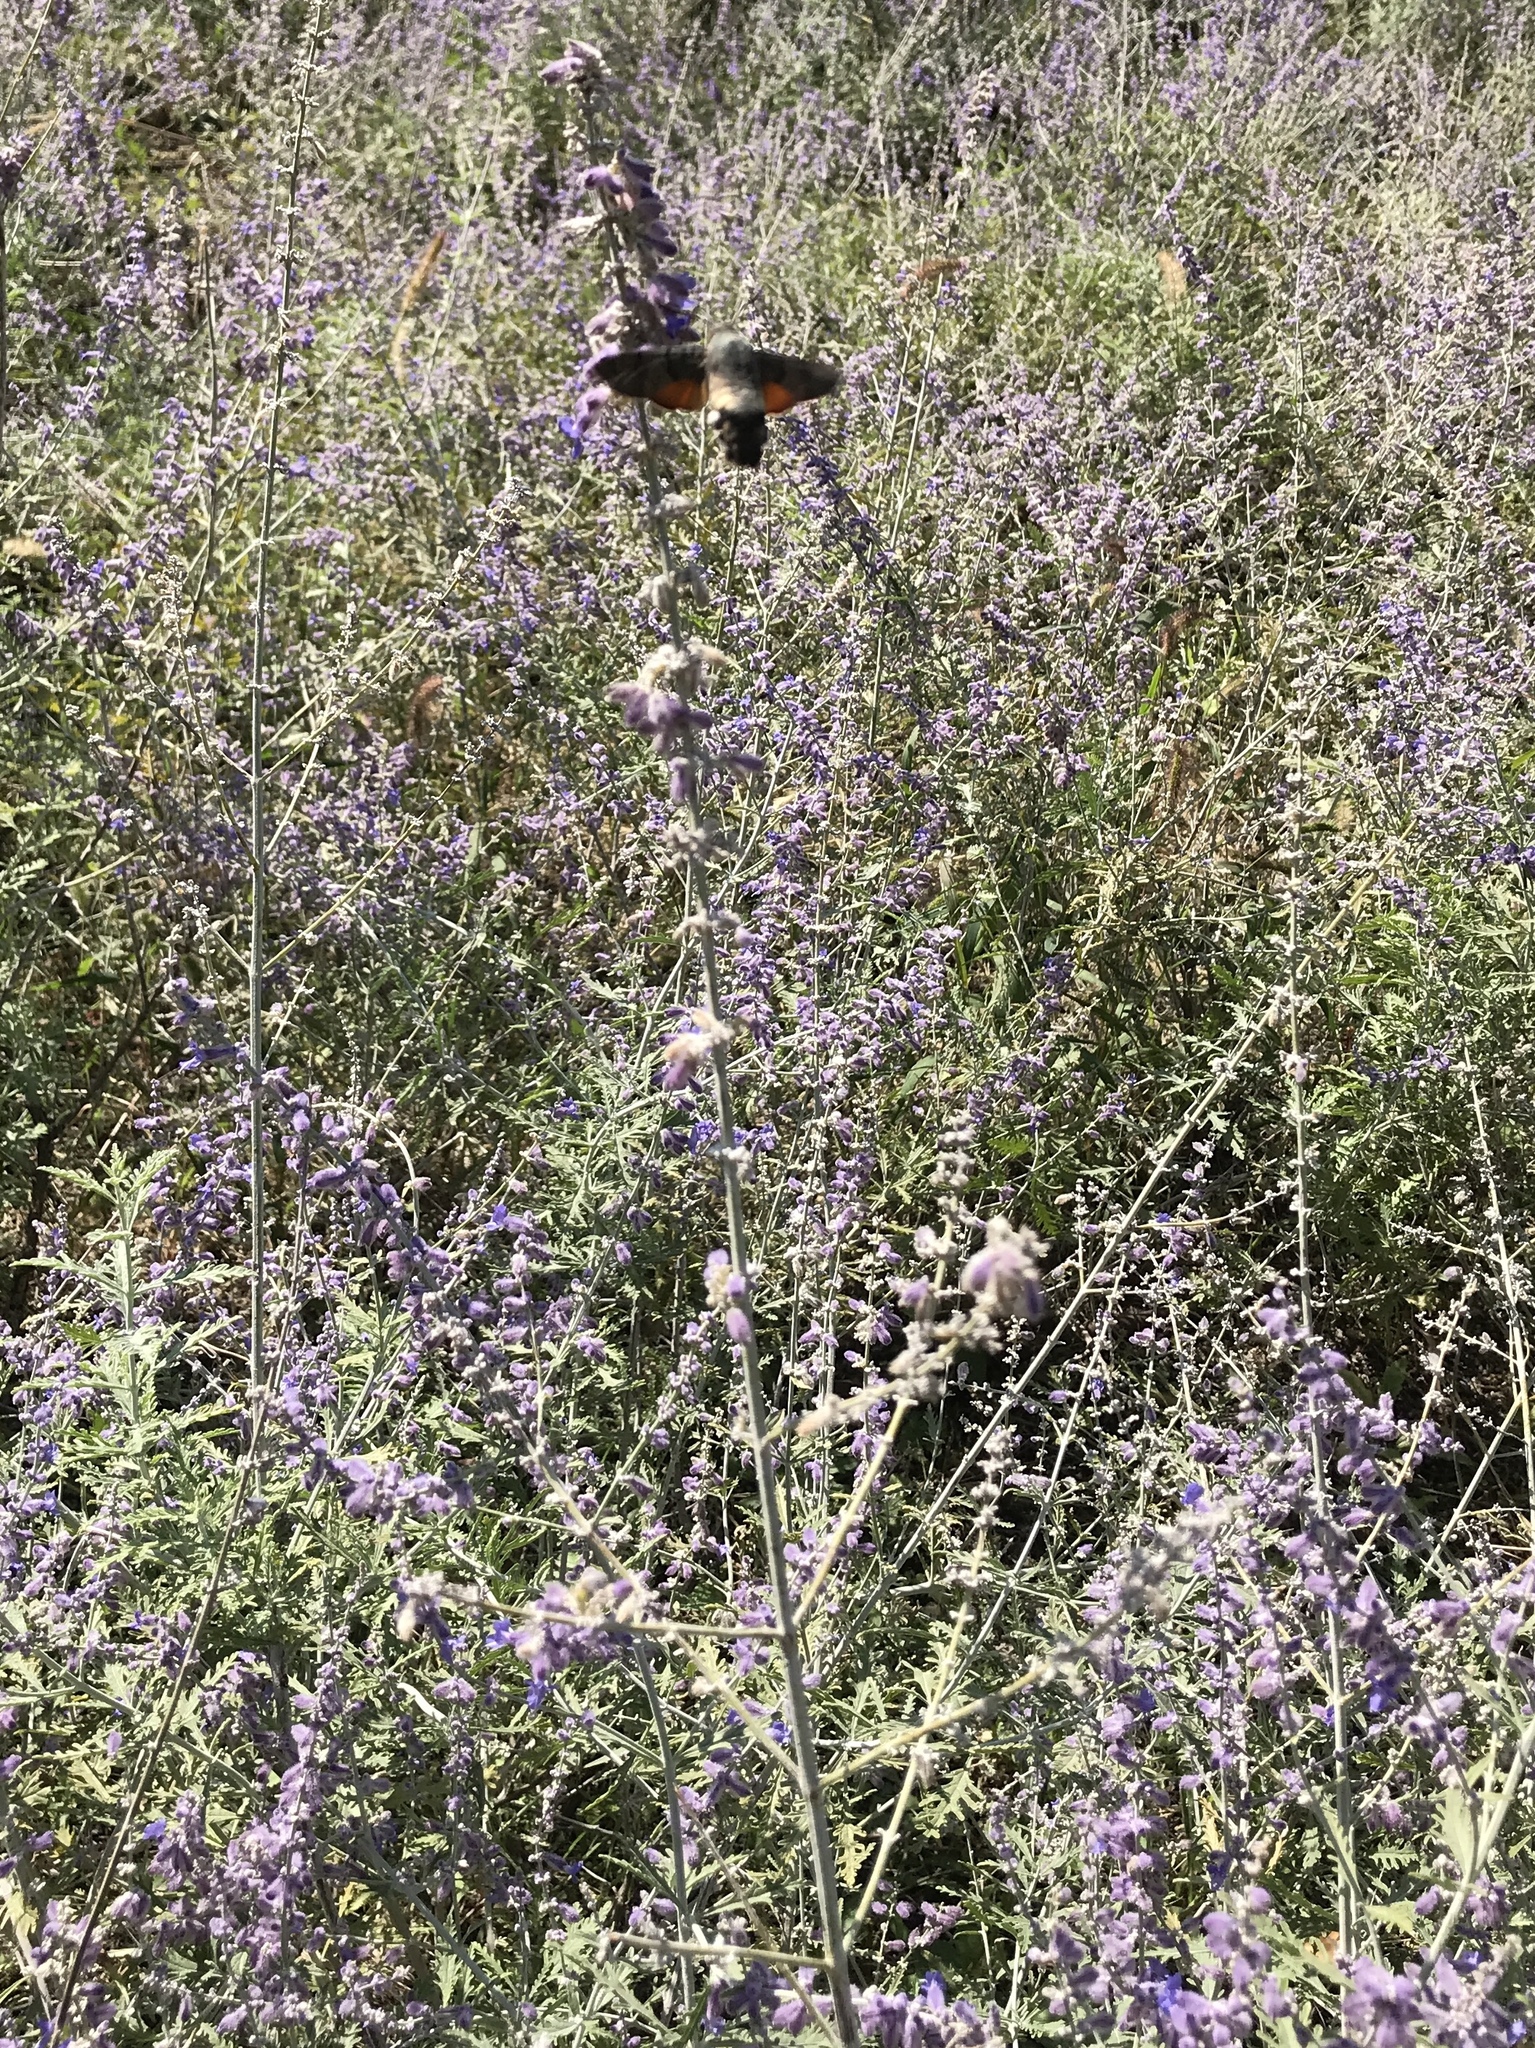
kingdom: Animalia
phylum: Arthropoda
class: Insecta
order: Lepidoptera
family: Sphingidae
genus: Macroglossum
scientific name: Macroglossum stellatarum
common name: Humming-bird hawk-moth
